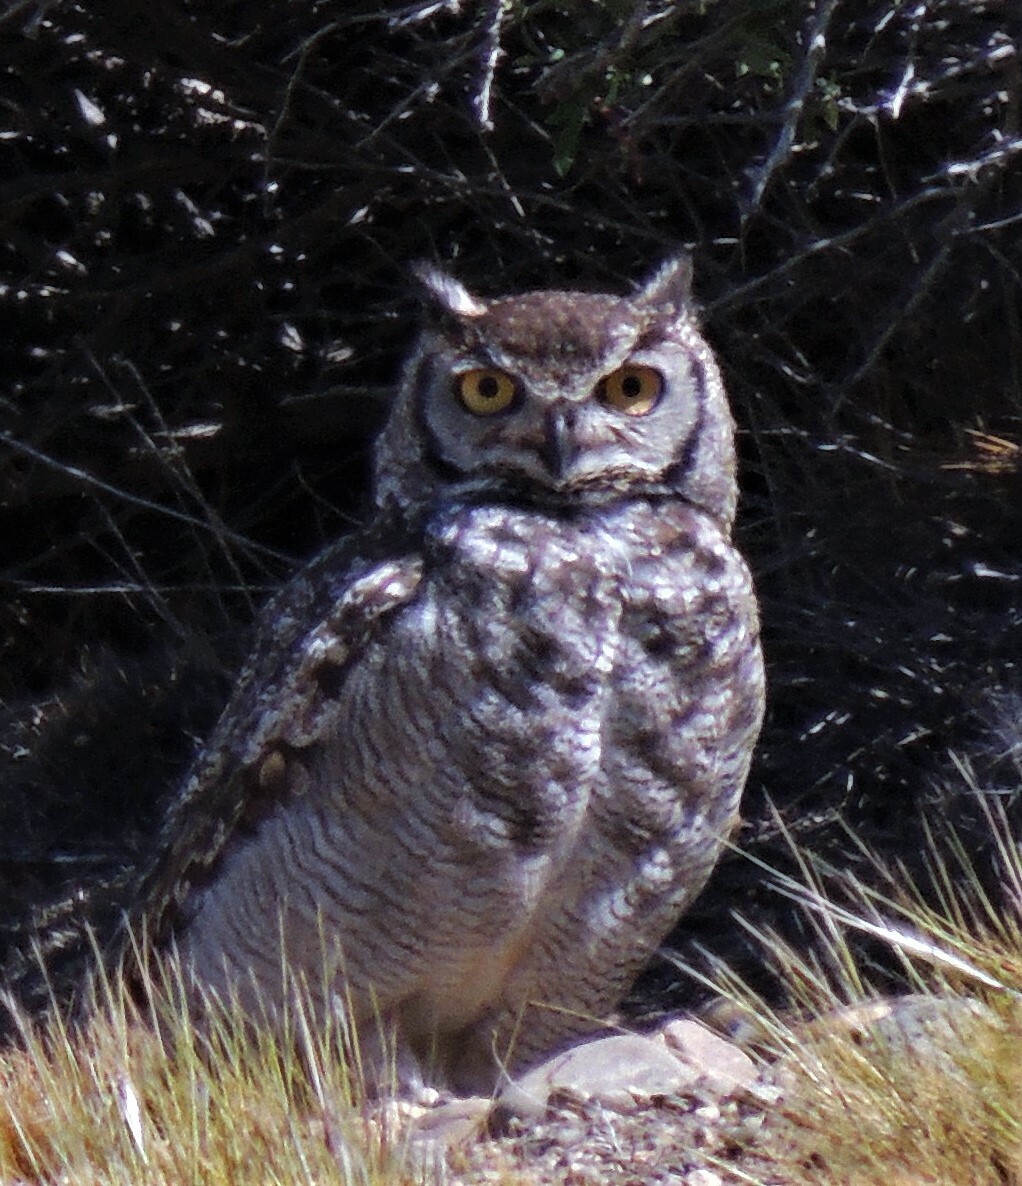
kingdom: Animalia
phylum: Chordata
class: Aves
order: Strigiformes
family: Strigidae
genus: Bubo
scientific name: Bubo magellanicus
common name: Lesser horned owl
